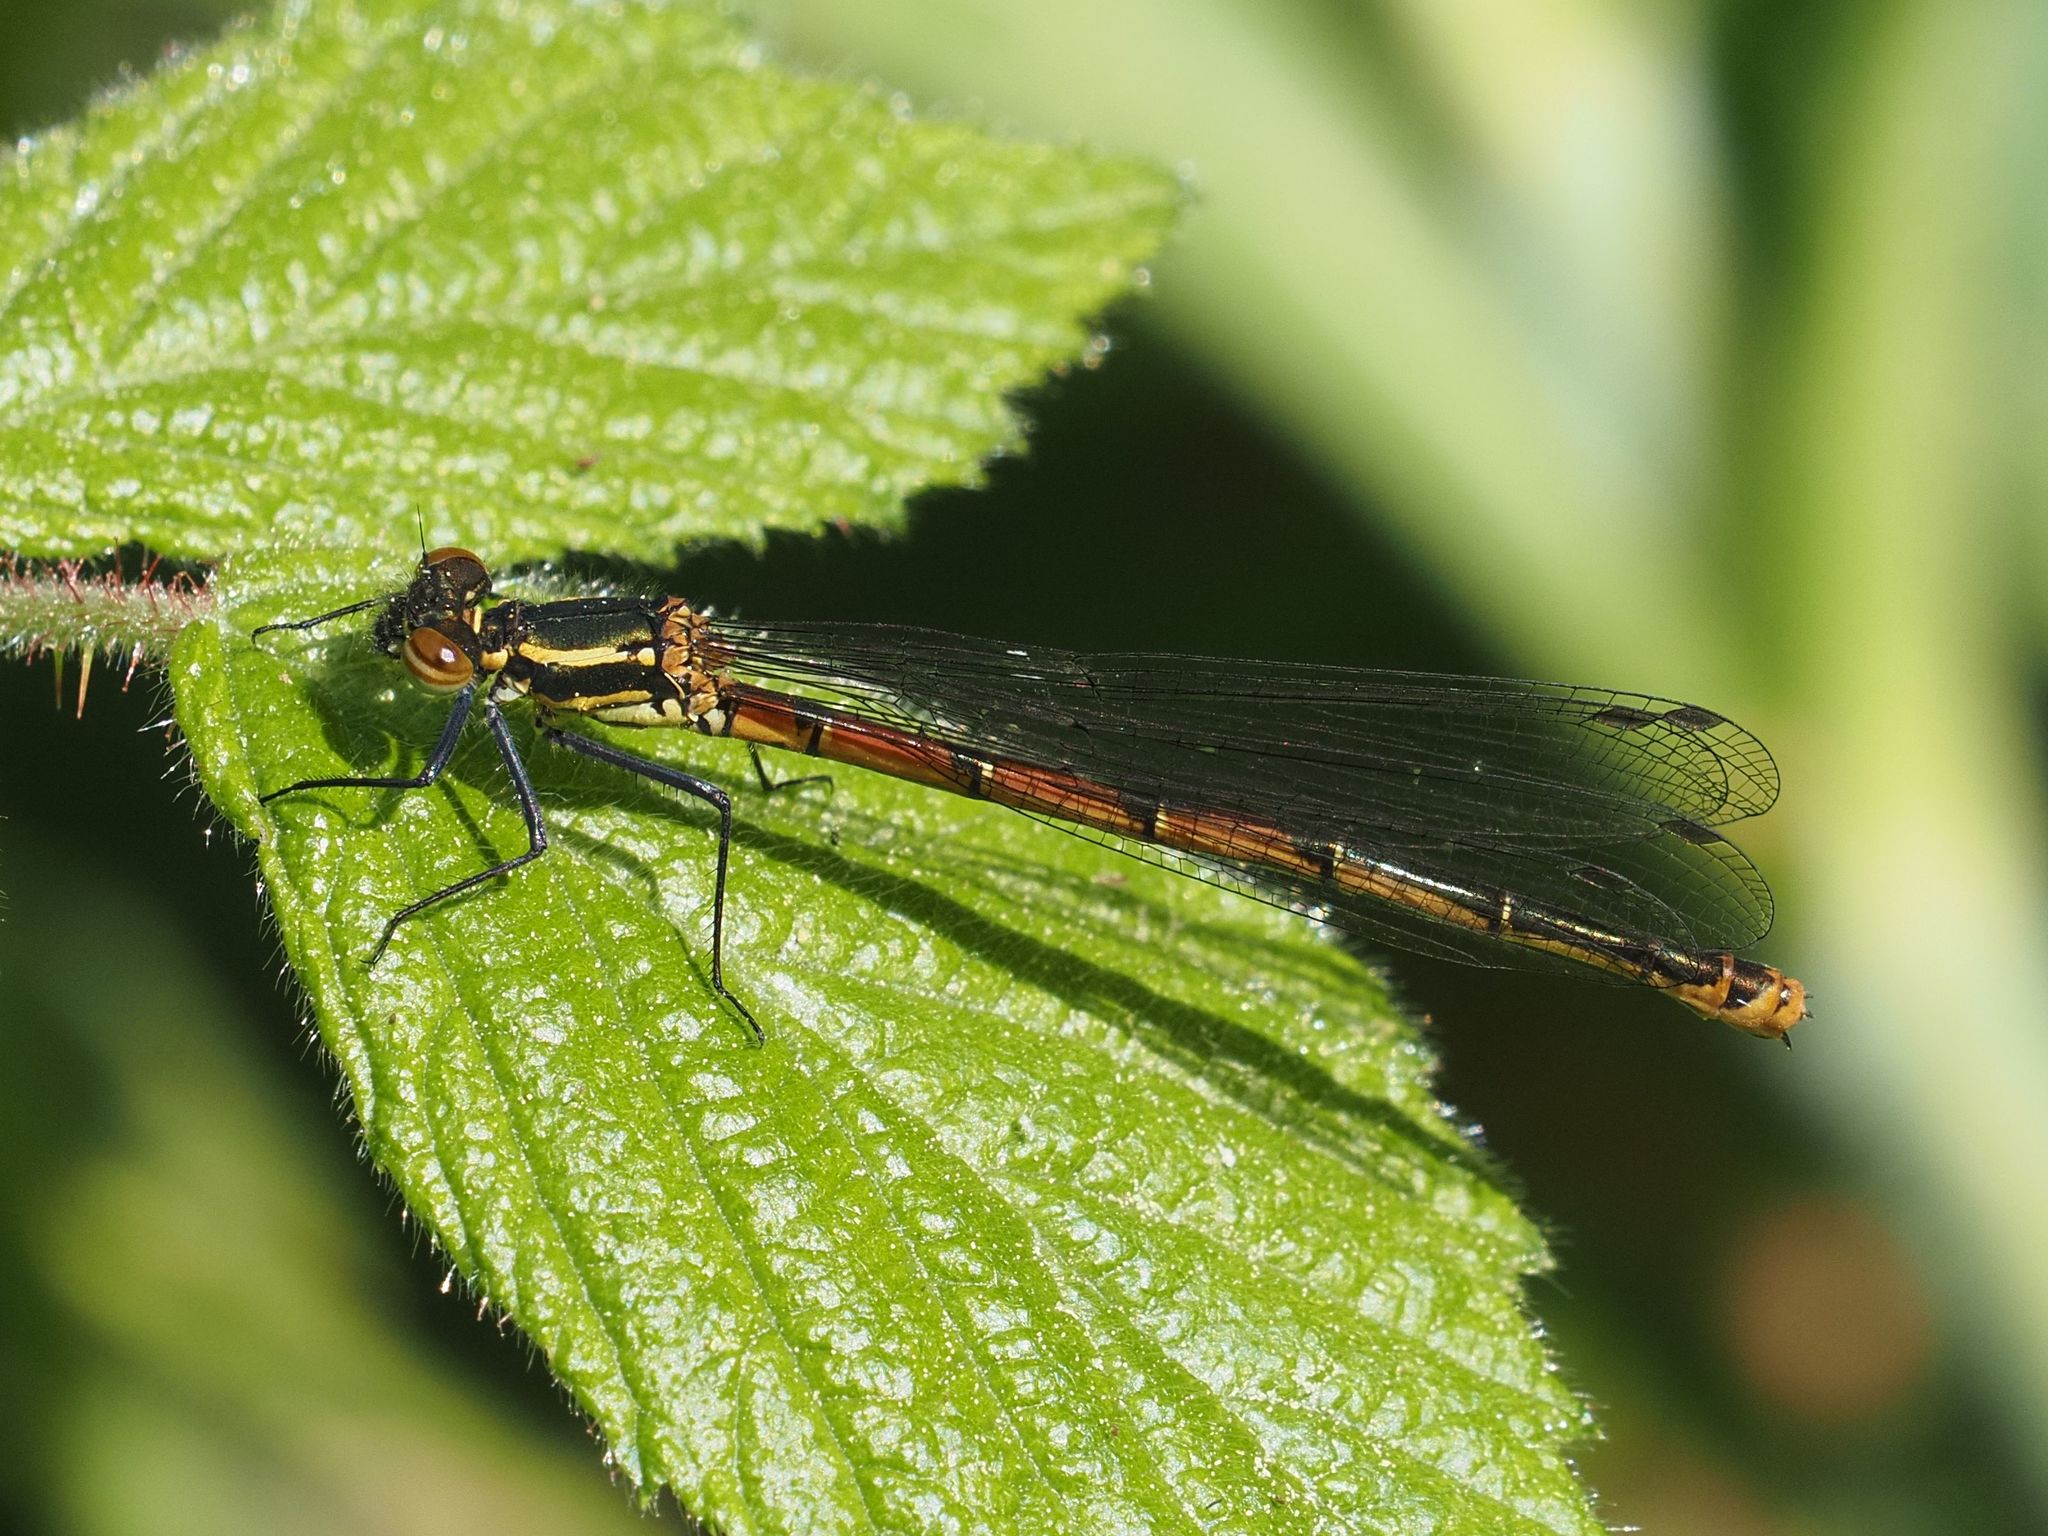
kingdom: Animalia
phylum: Arthropoda
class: Insecta
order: Odonata
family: Coenagrionidae
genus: Pyrrhosoma
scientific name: Pyrrhosoma nymphula
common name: Large red damsel
